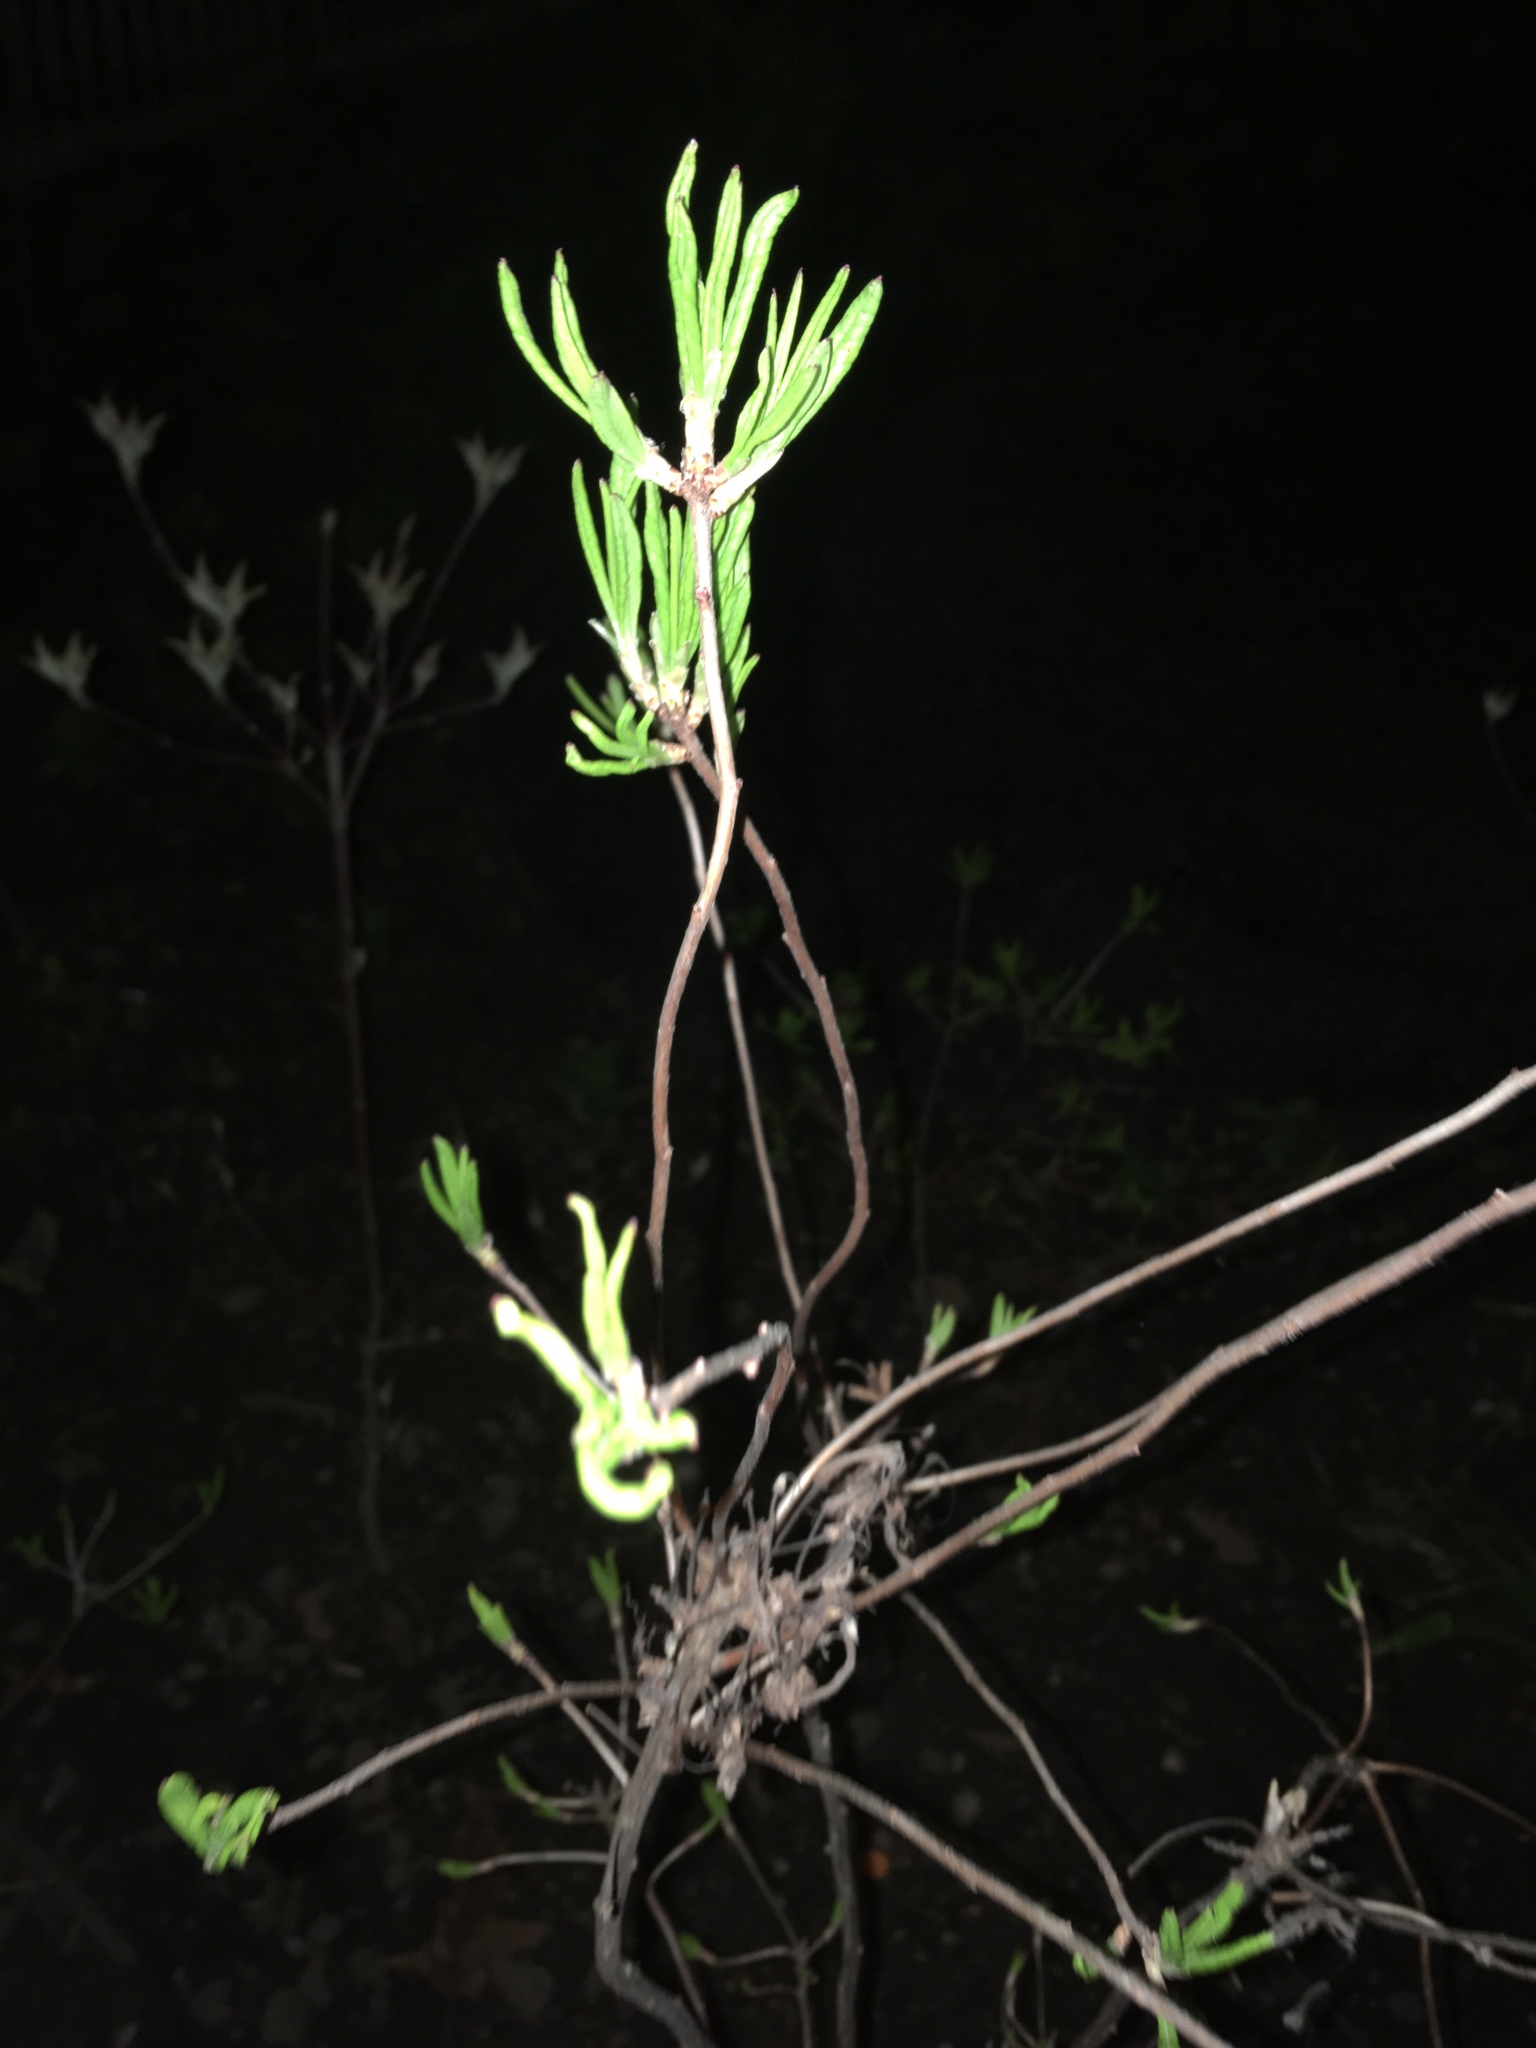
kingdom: Plantae
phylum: Tracheophyta
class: Magnoliopsida
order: Ericales
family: Ericaceae
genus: Rhododendron
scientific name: Rhododendron viscosum
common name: Clammy azalea
